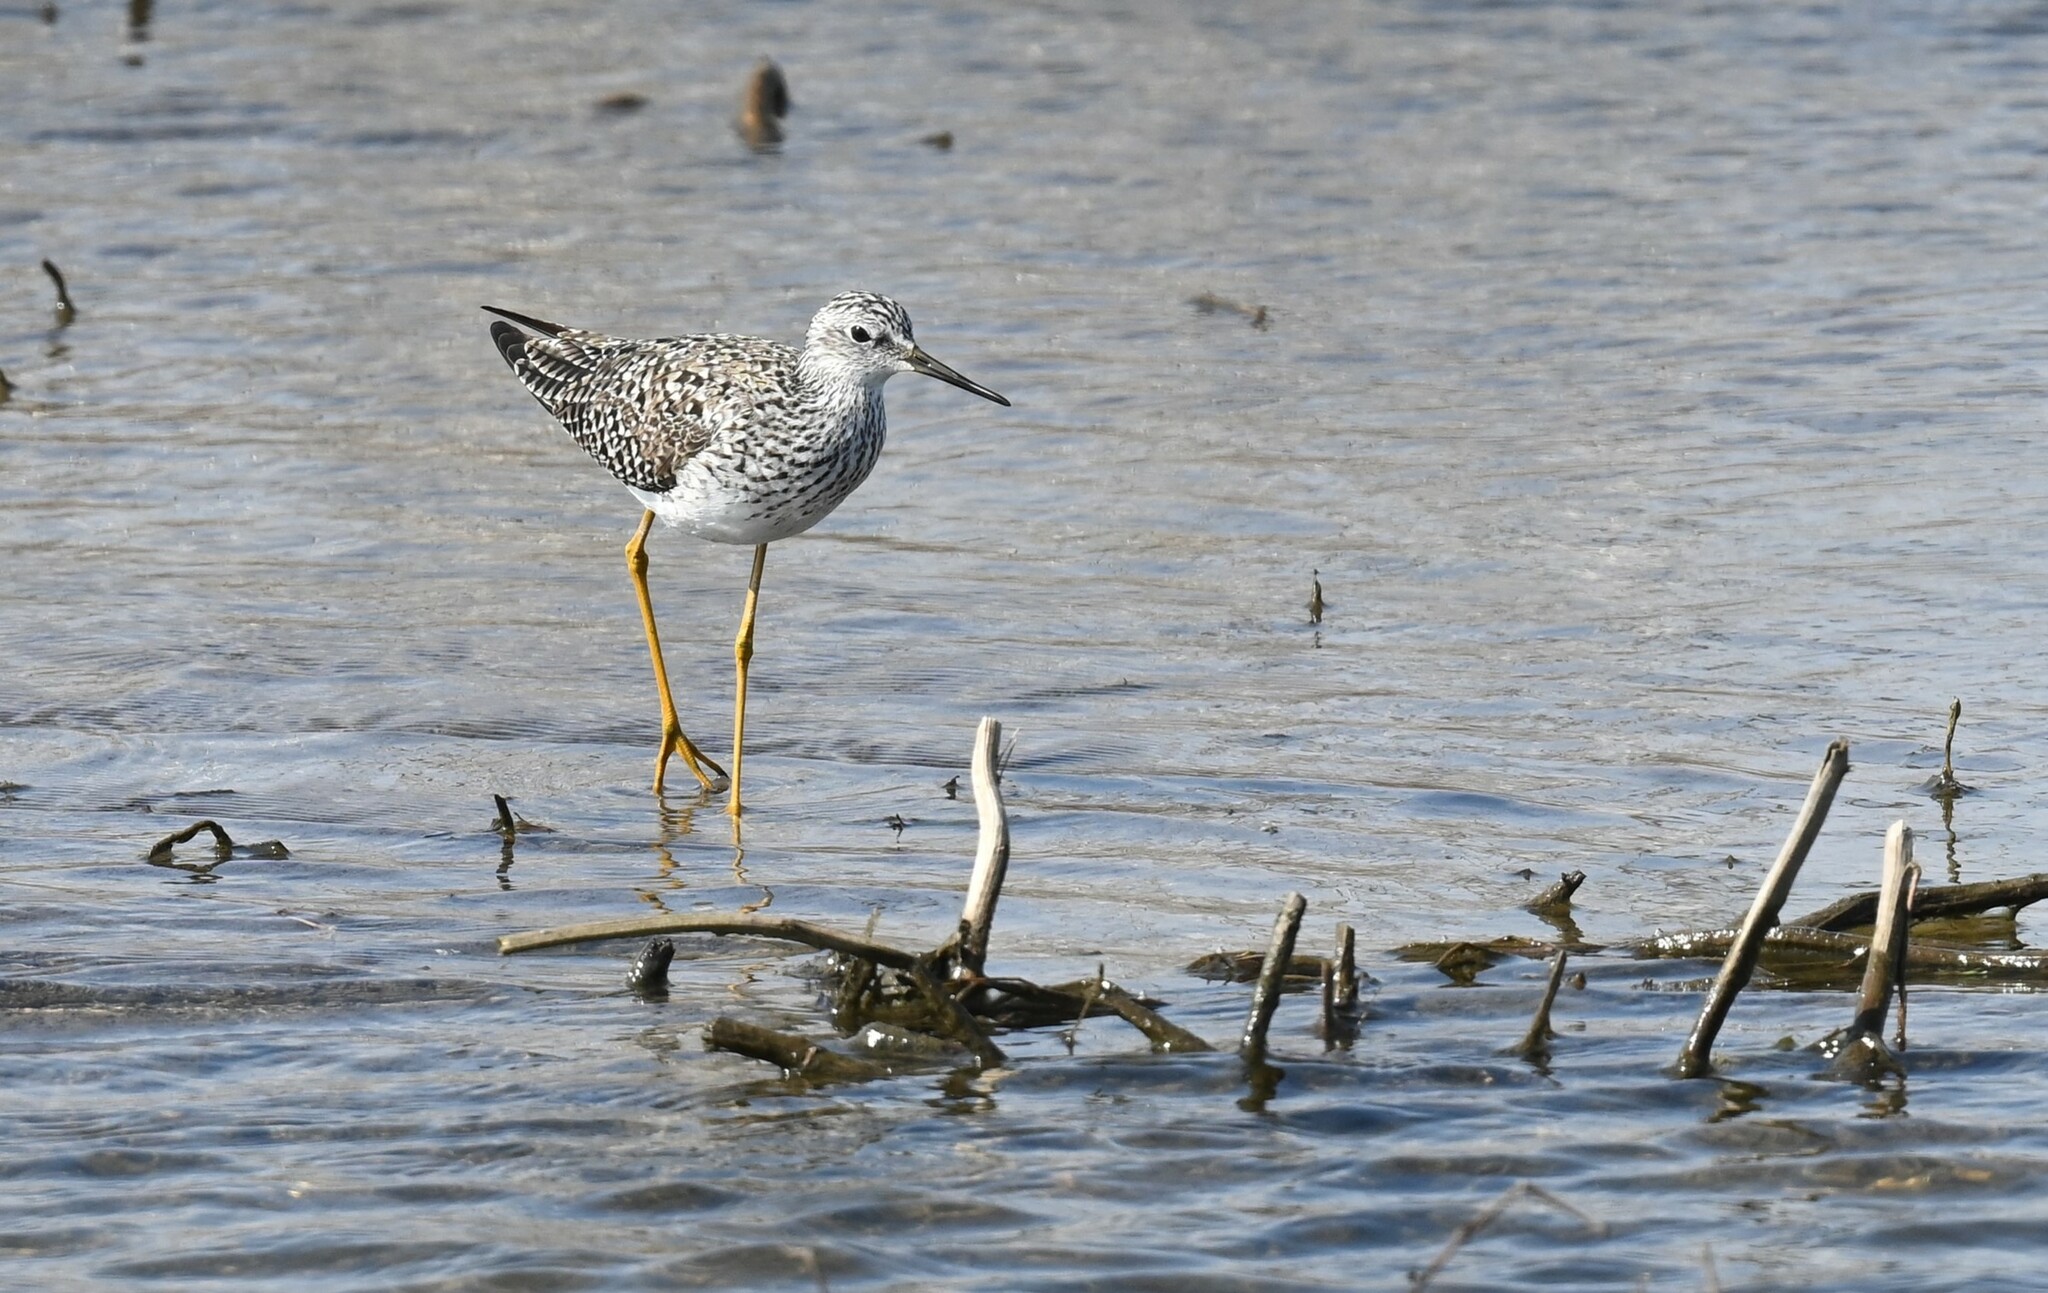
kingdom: Animalia
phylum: Chordata
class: Aves
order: Charadriiformes
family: Scolopacidae
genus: Tringa
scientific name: Tringa flavipes
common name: Lesser yellowlegs
